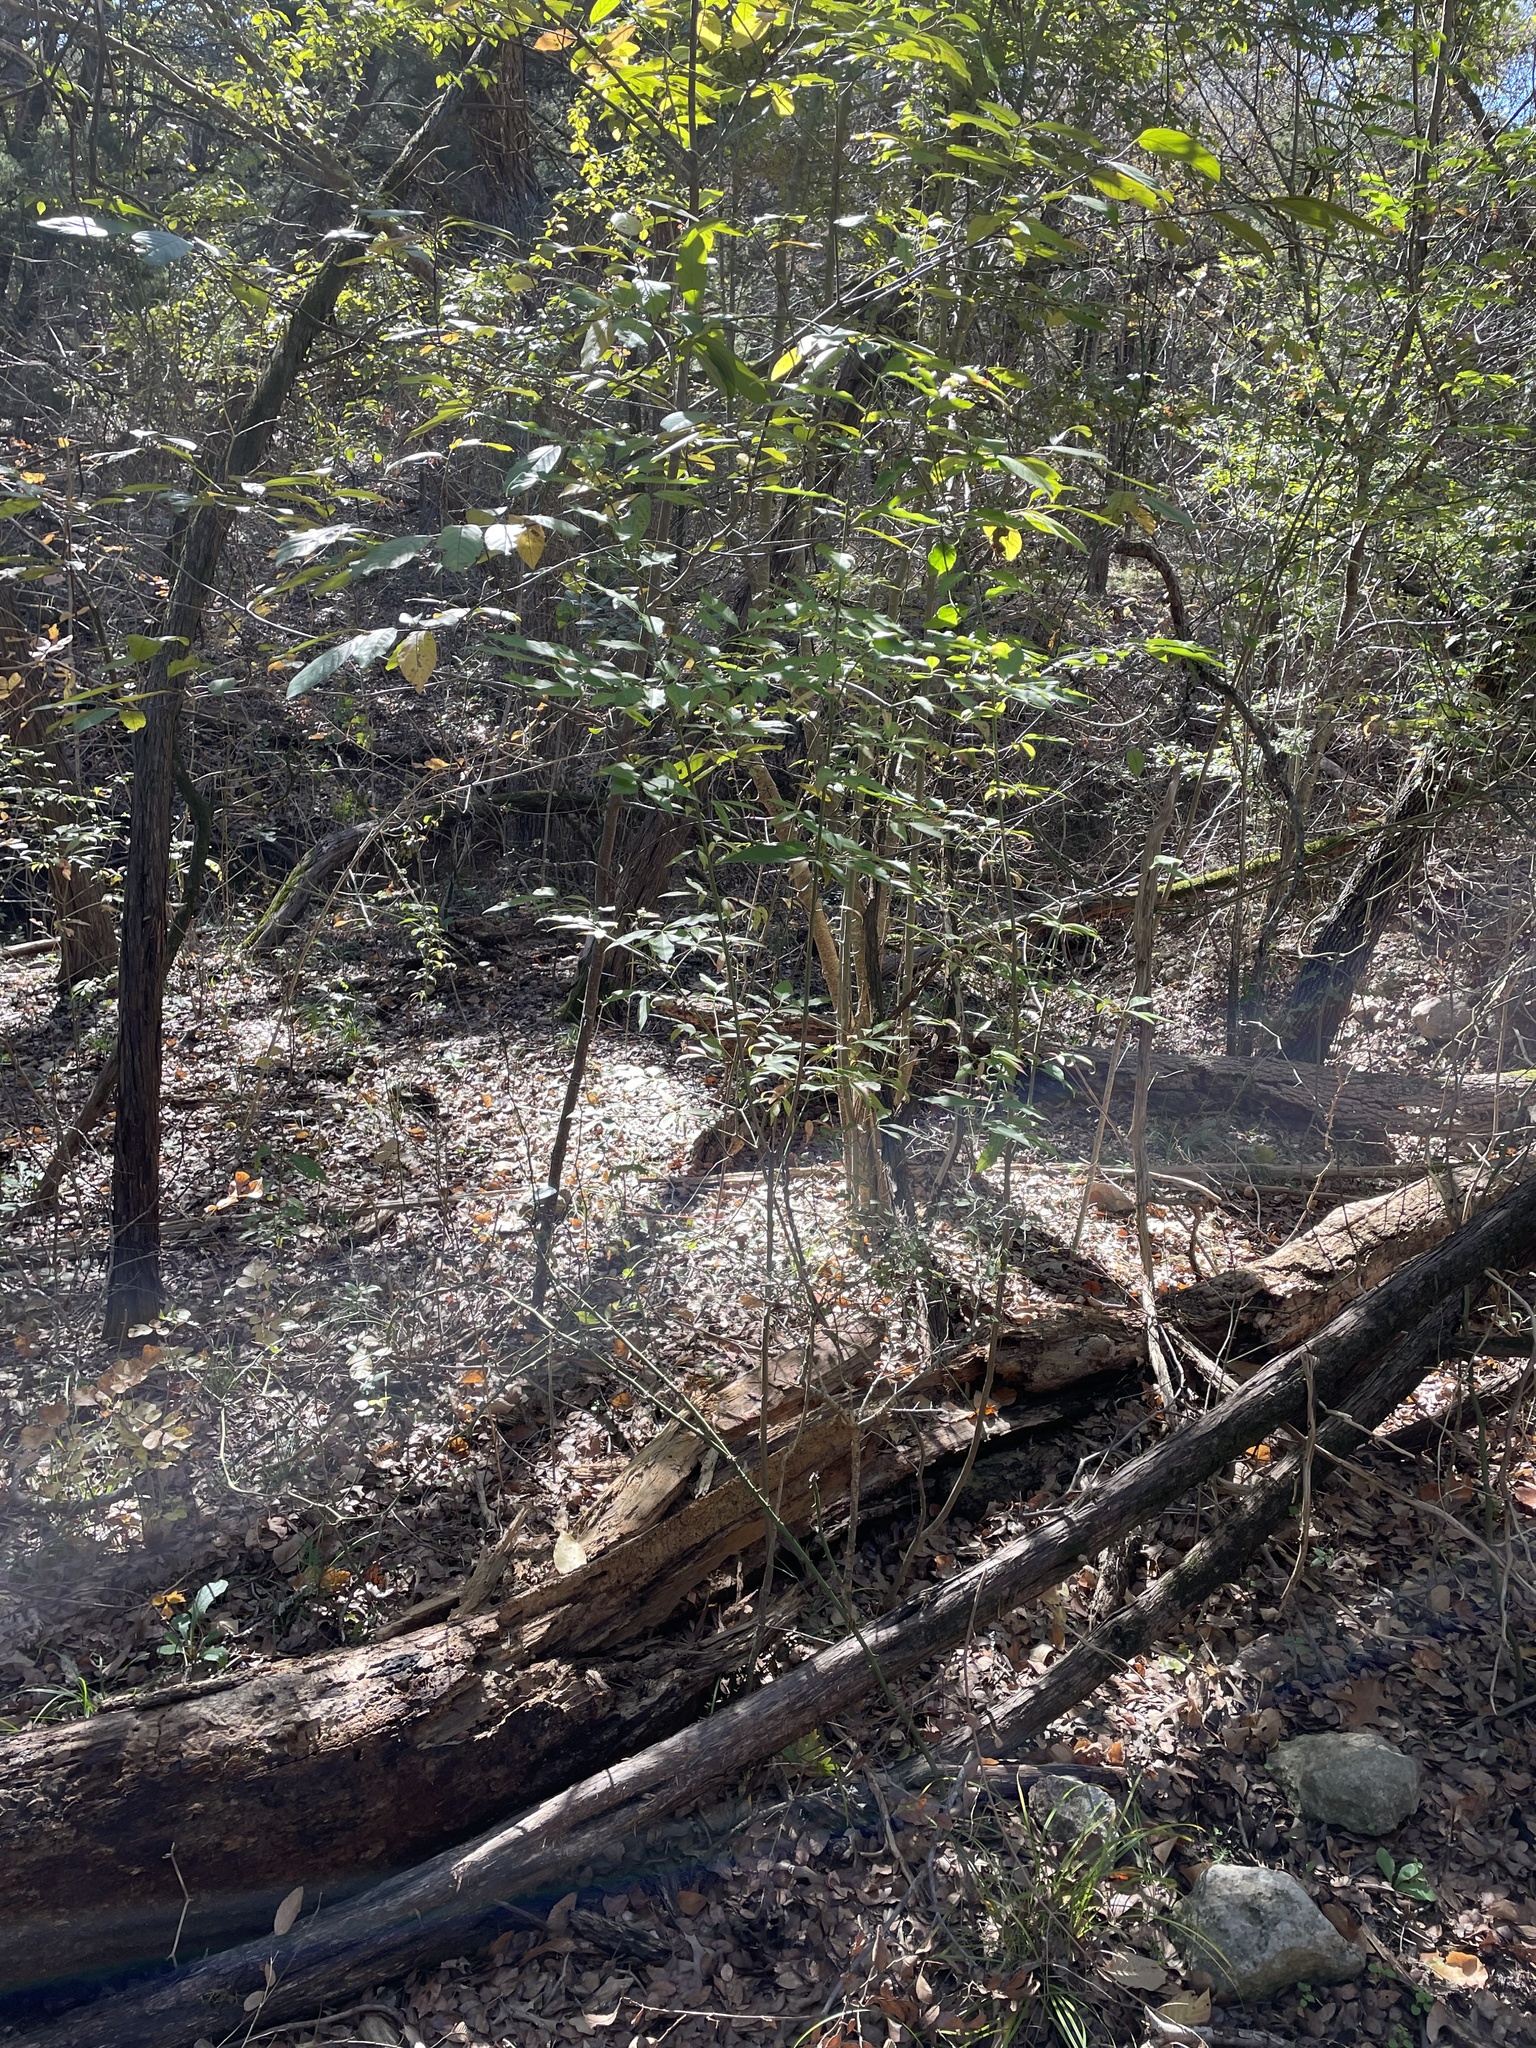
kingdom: Plantae
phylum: Tracheophyta
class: Magnoliopsida
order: Celastrales
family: Celastraceae
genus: Euonymus
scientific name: Euonymus atropurpureus
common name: Eastern wahoo
